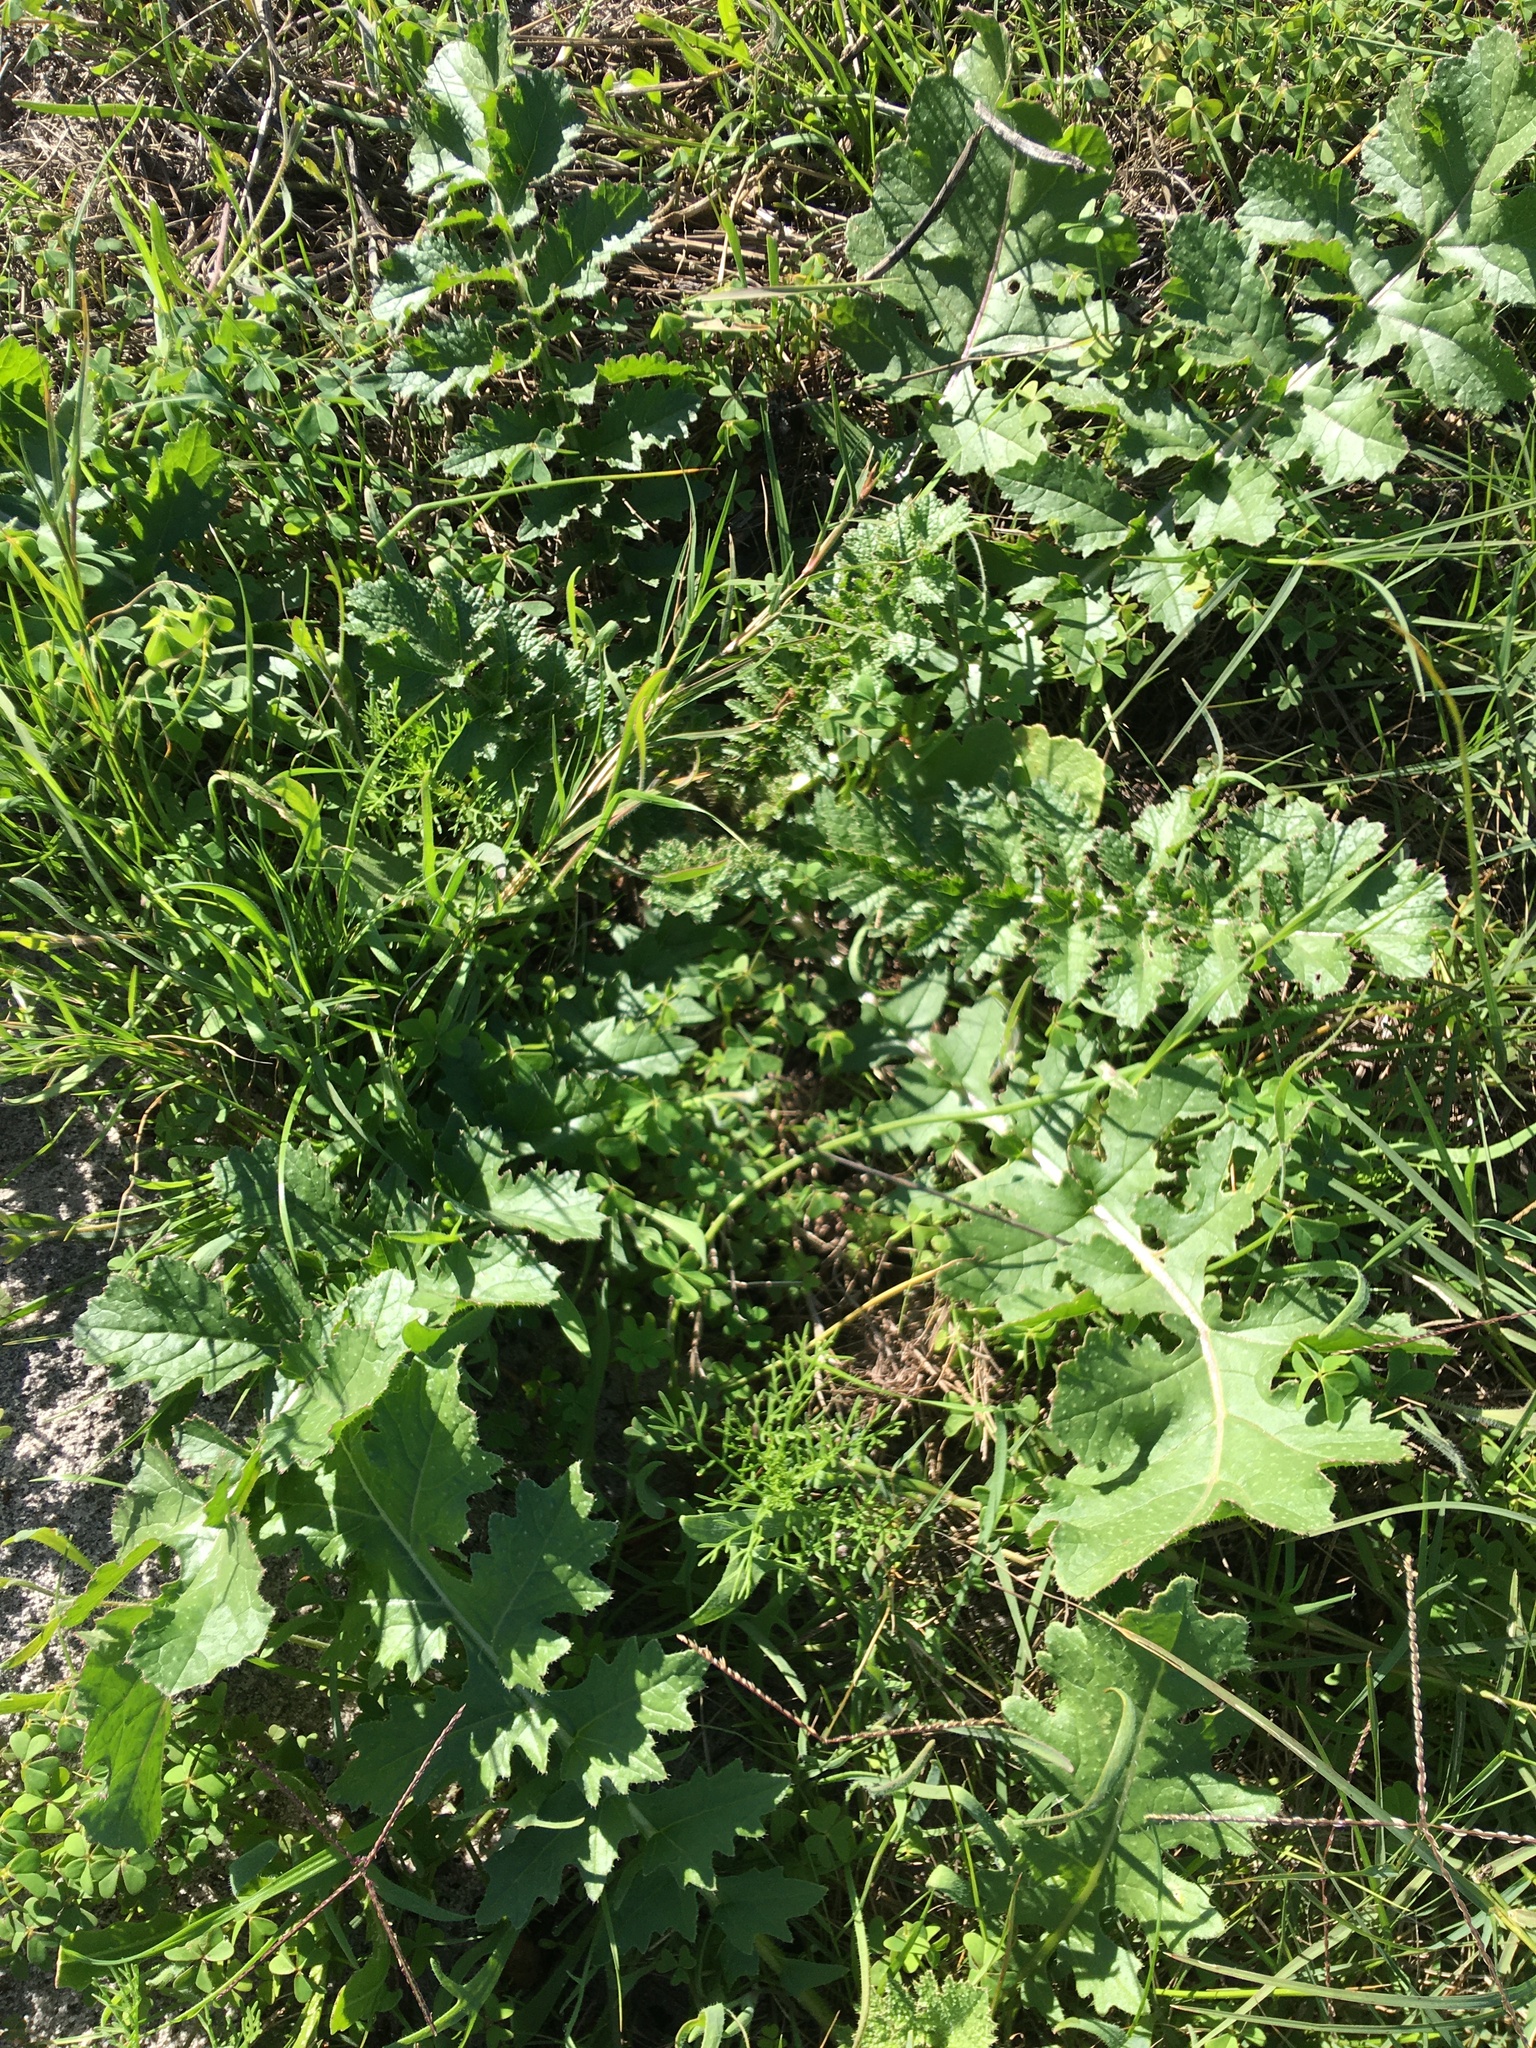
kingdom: Plantae
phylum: Tracheophyta
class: Magnoliopsida
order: Brassicales
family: Brassicaceae
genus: Brassica
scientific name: Brassica tournefortii
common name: Pale cabbage
